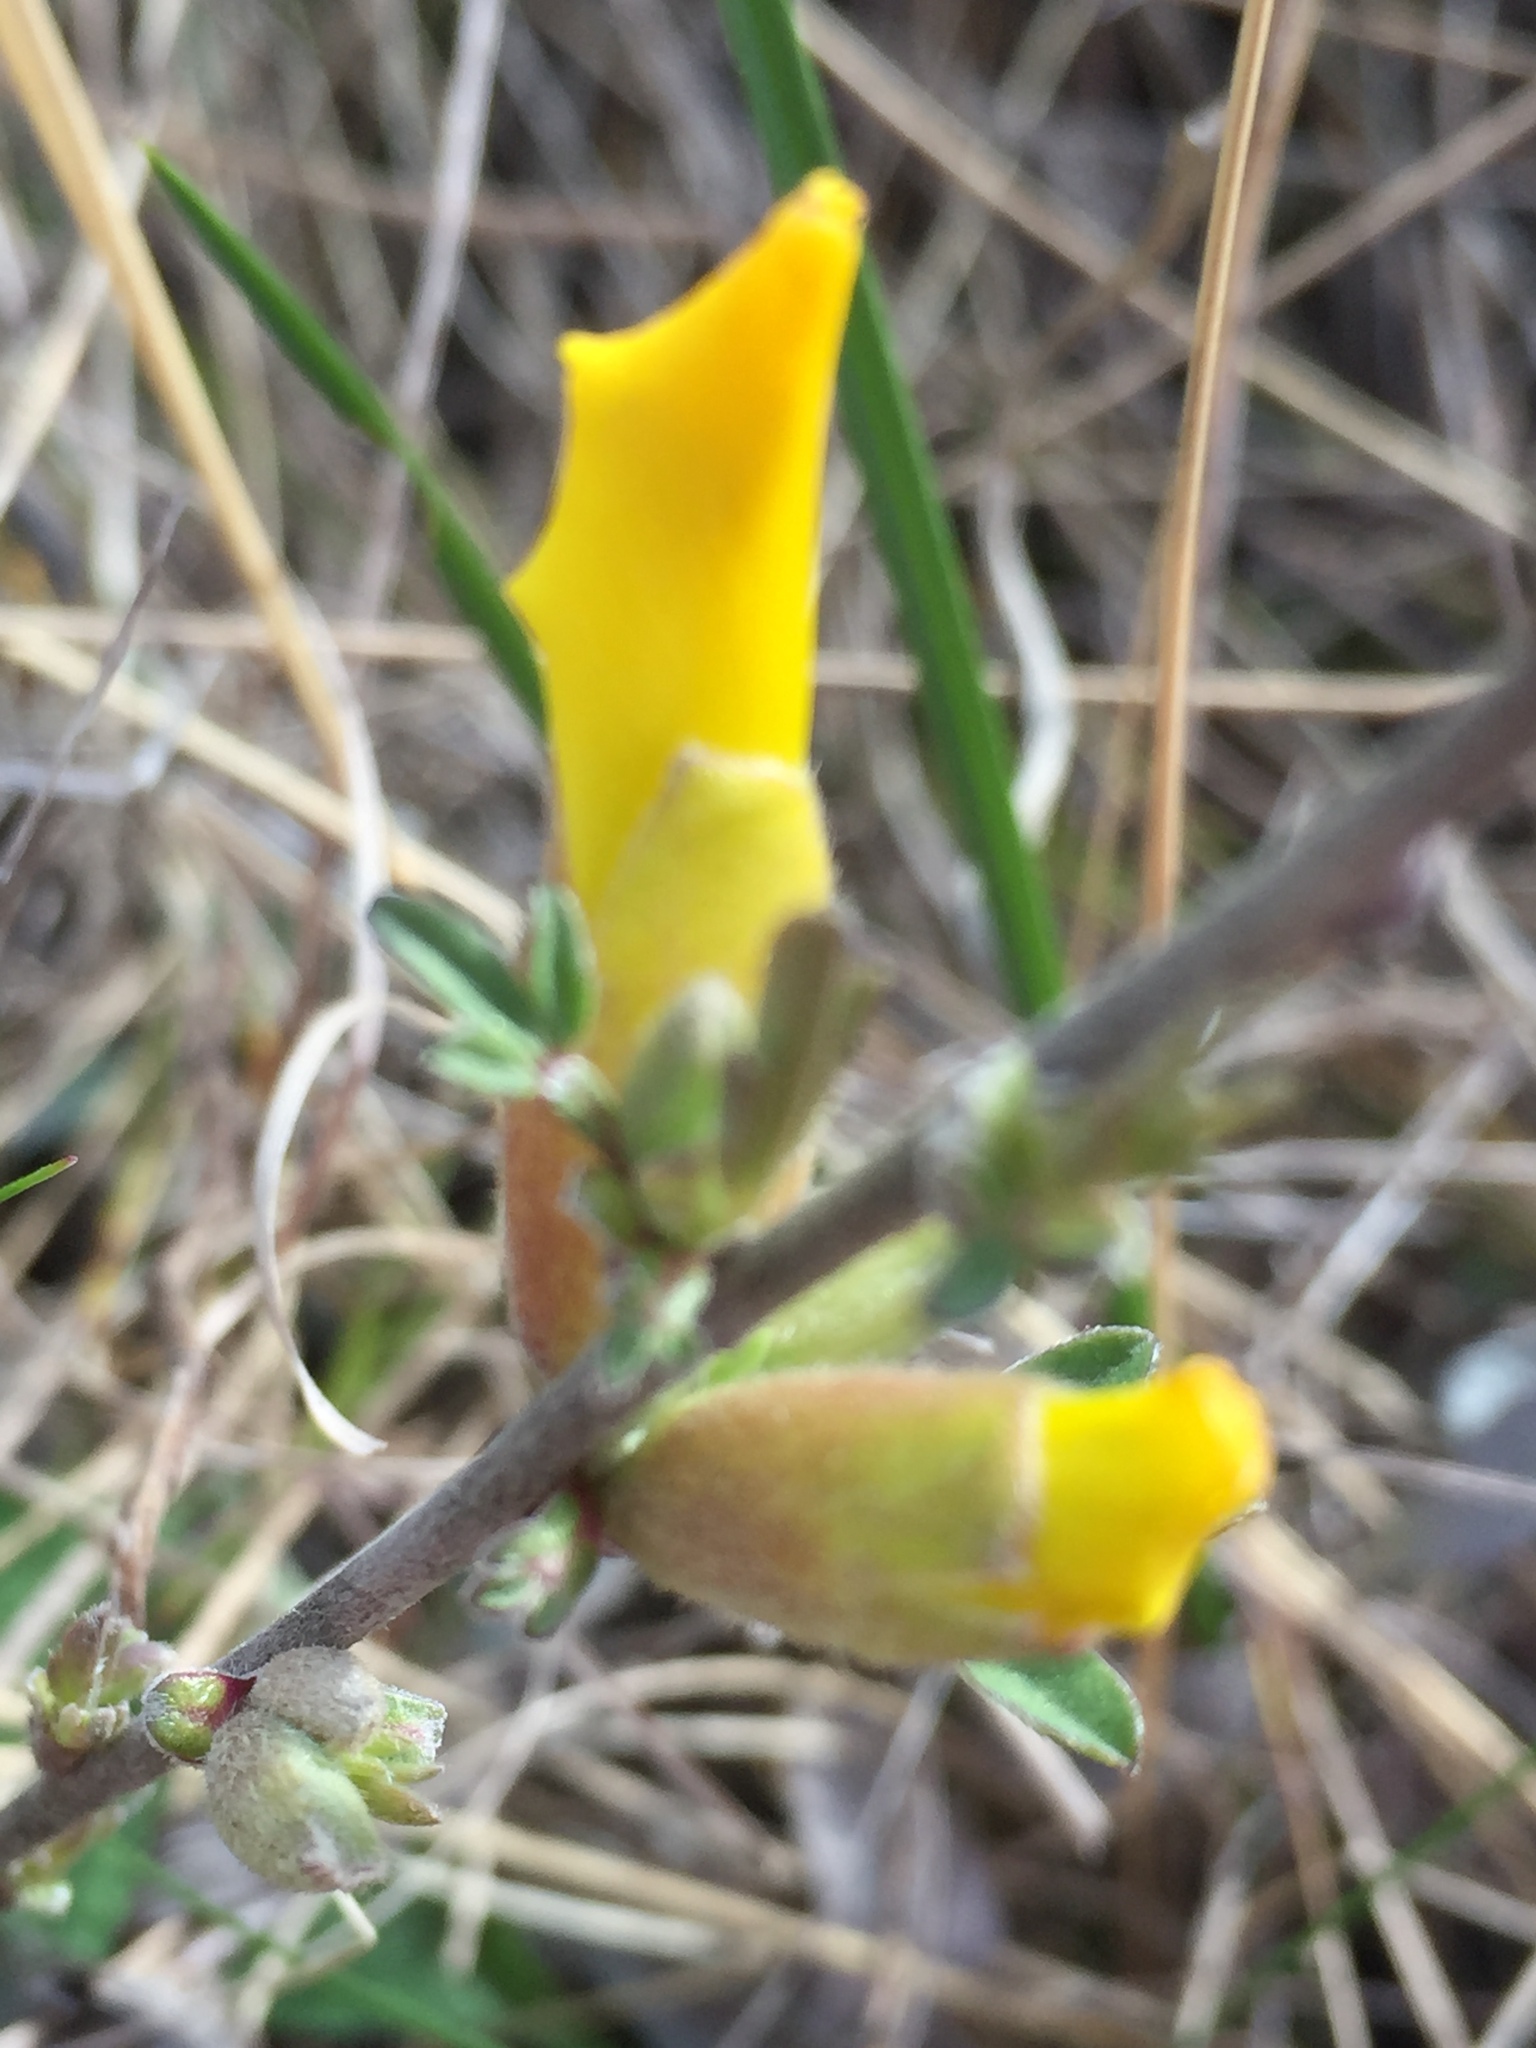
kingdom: Plantae
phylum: Tracheophyta
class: Magnoliopsida
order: Fabales
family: Fabaceae
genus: Chamaecytisus
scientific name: Chamaecytisus ruthenicus
